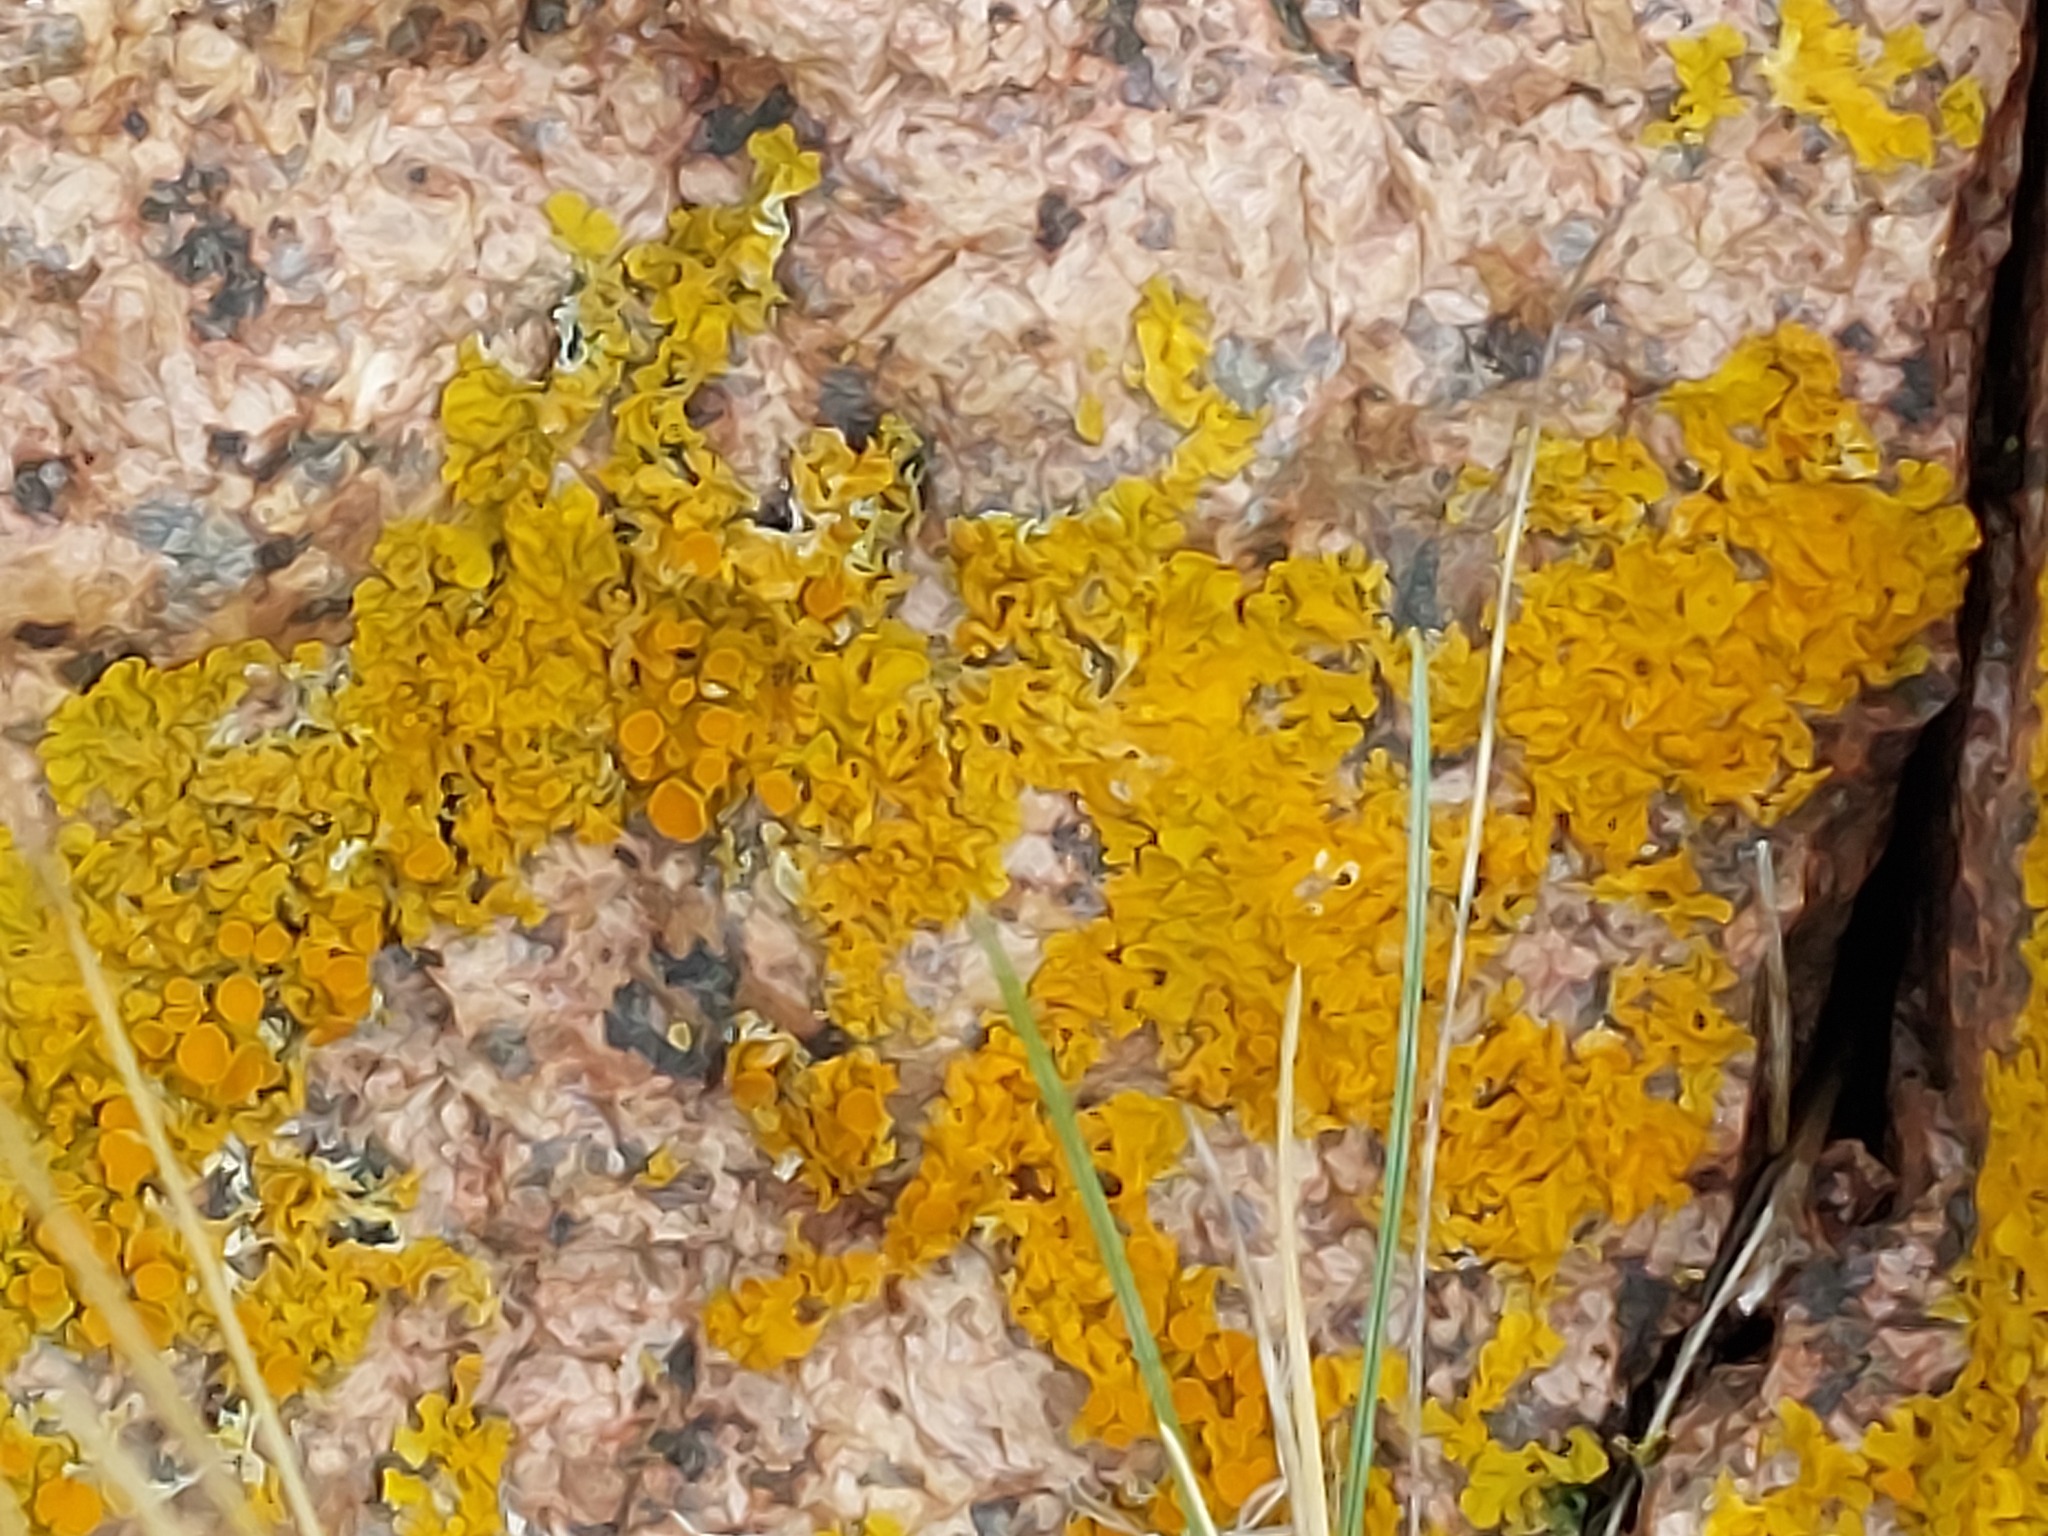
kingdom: Fungi
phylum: Ascomycota
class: Lecanoromycetes
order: Teloschistales
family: Teloschistaceae
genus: Xanthoria
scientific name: Xanthoria parietina
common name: Common orange lichen
